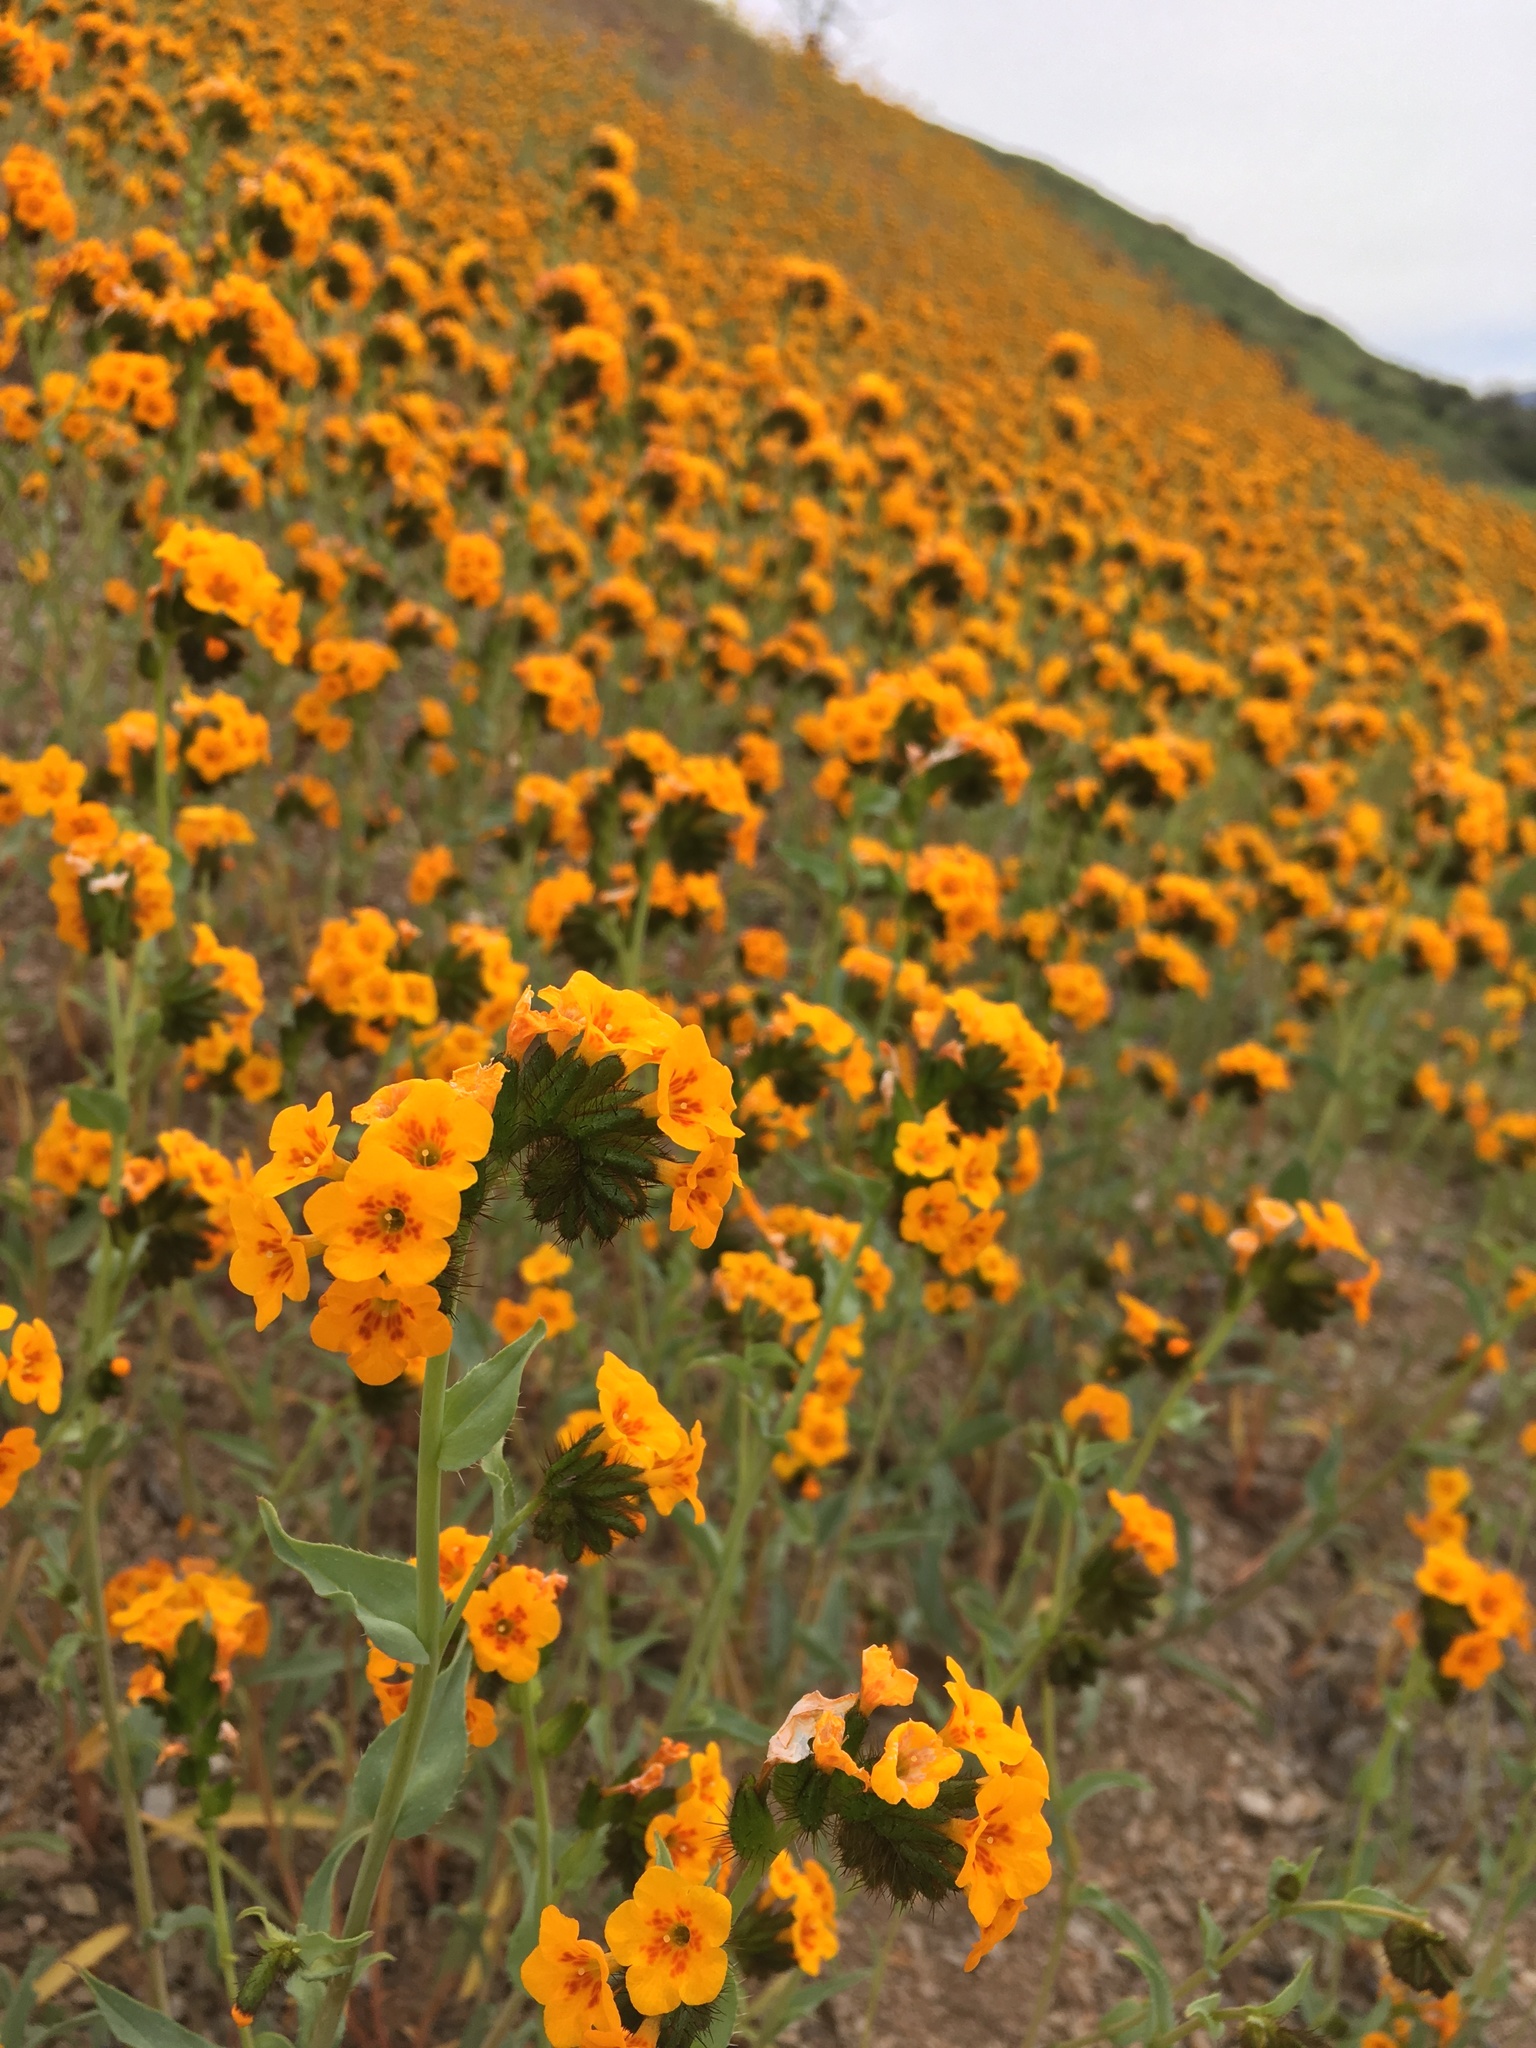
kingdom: Plantae
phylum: Tracheophyta
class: Magnoliopsida
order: Boraginales
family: Boraginaceae
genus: Amsinckia
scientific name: Amsinckia vernicosa
